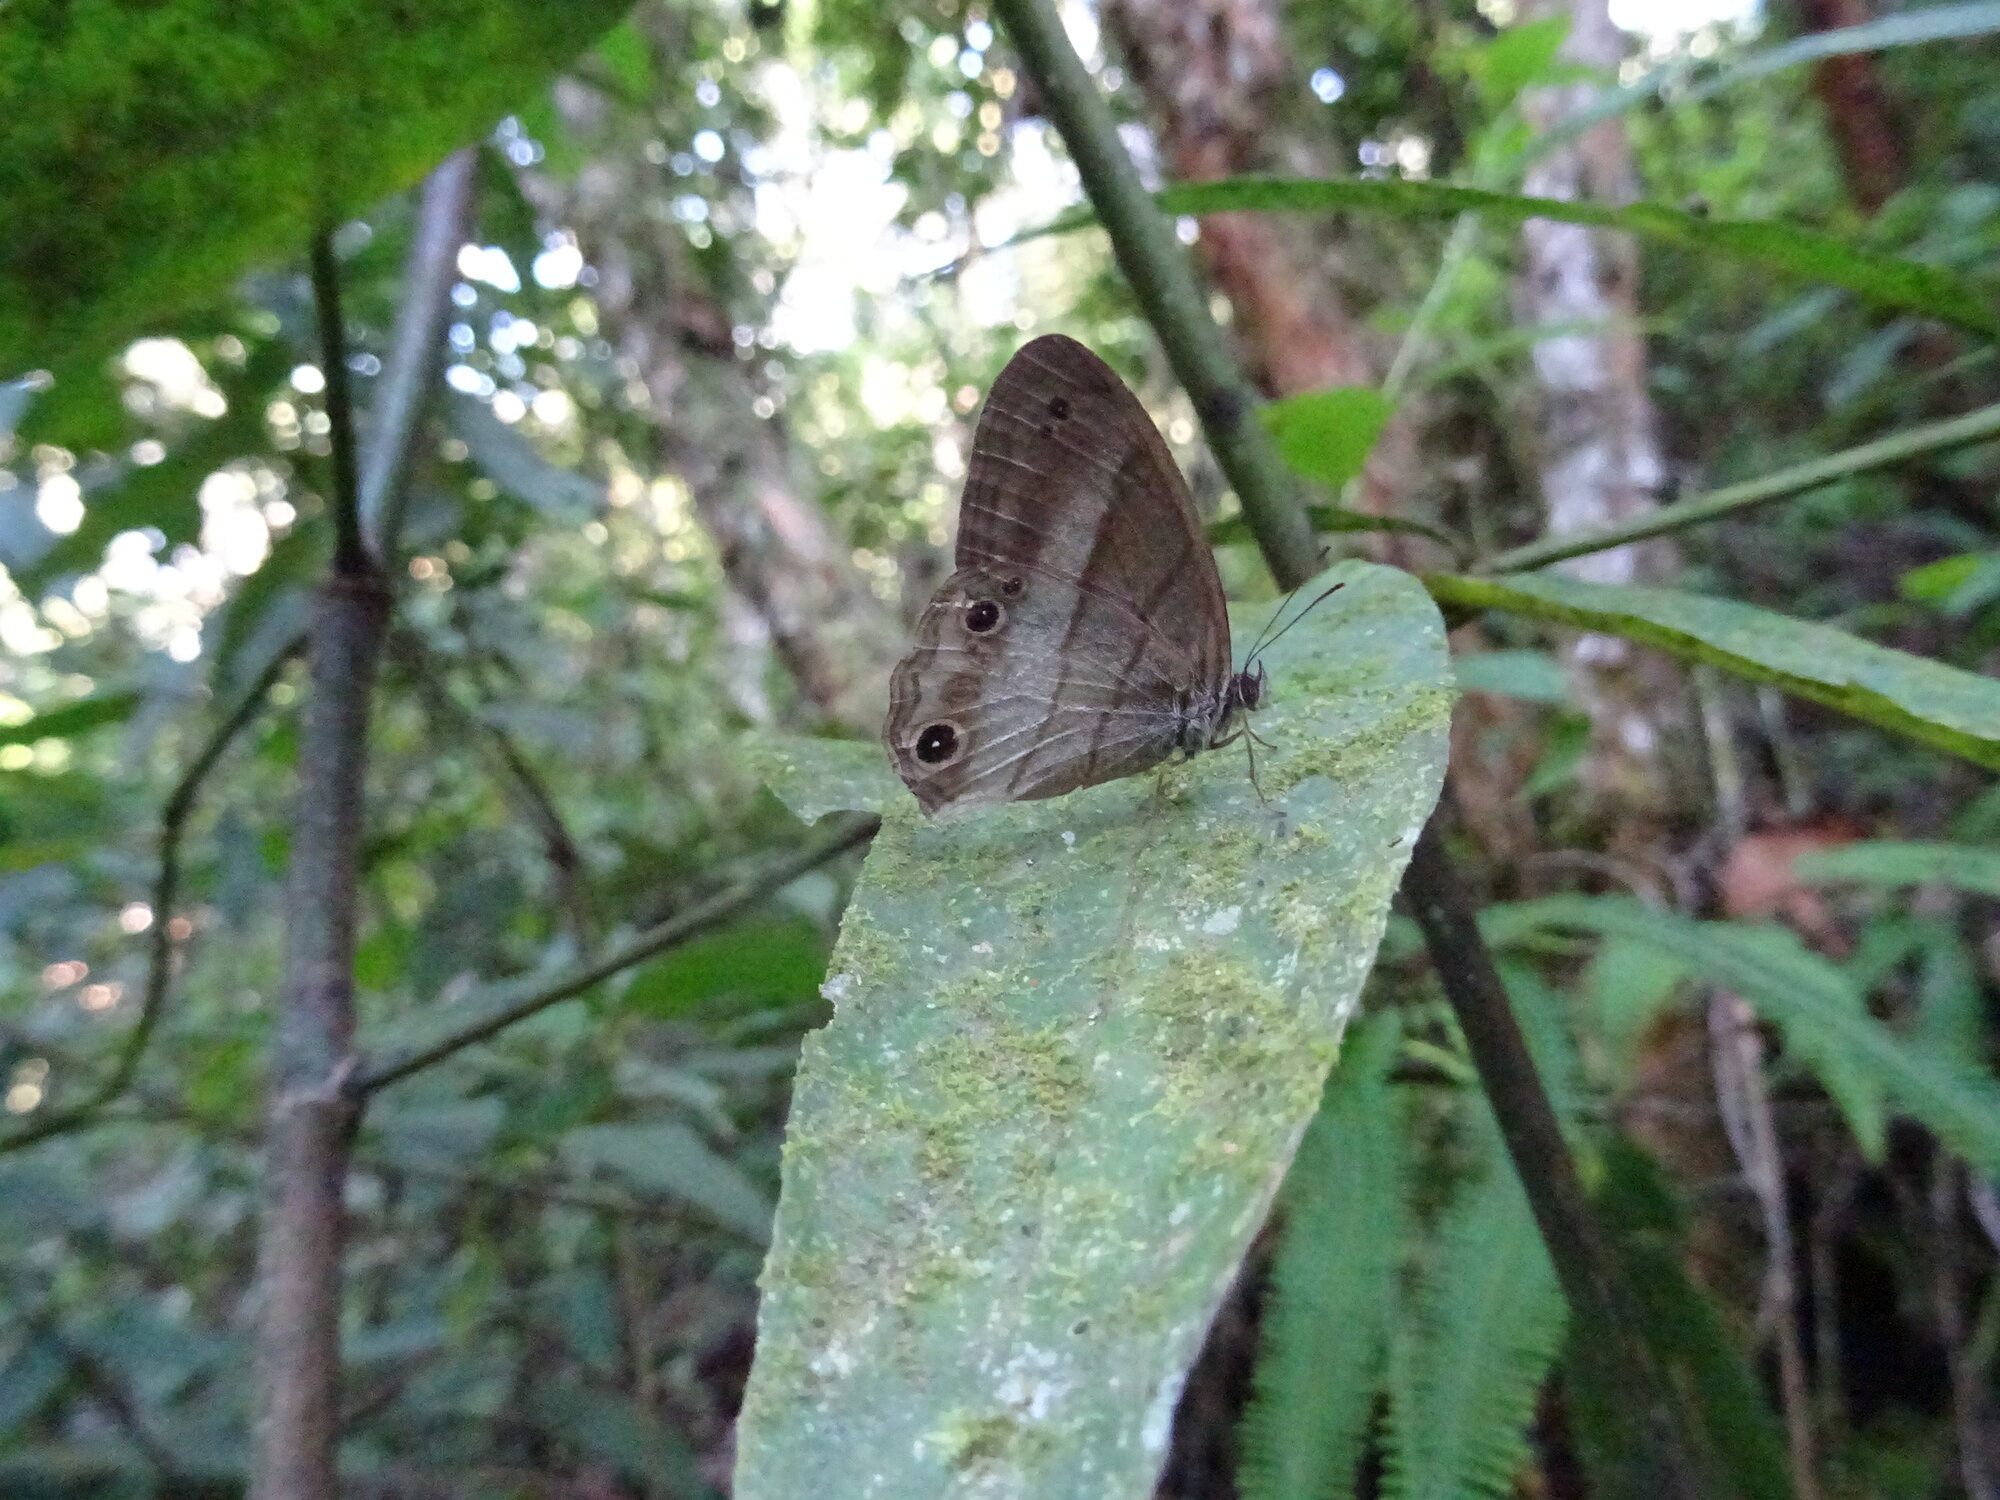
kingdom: Animalia
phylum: Arthropoda
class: Insecta
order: Lepidoptera
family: Nymphalidae
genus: Euptychoides
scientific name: Euptychoides saturnus
